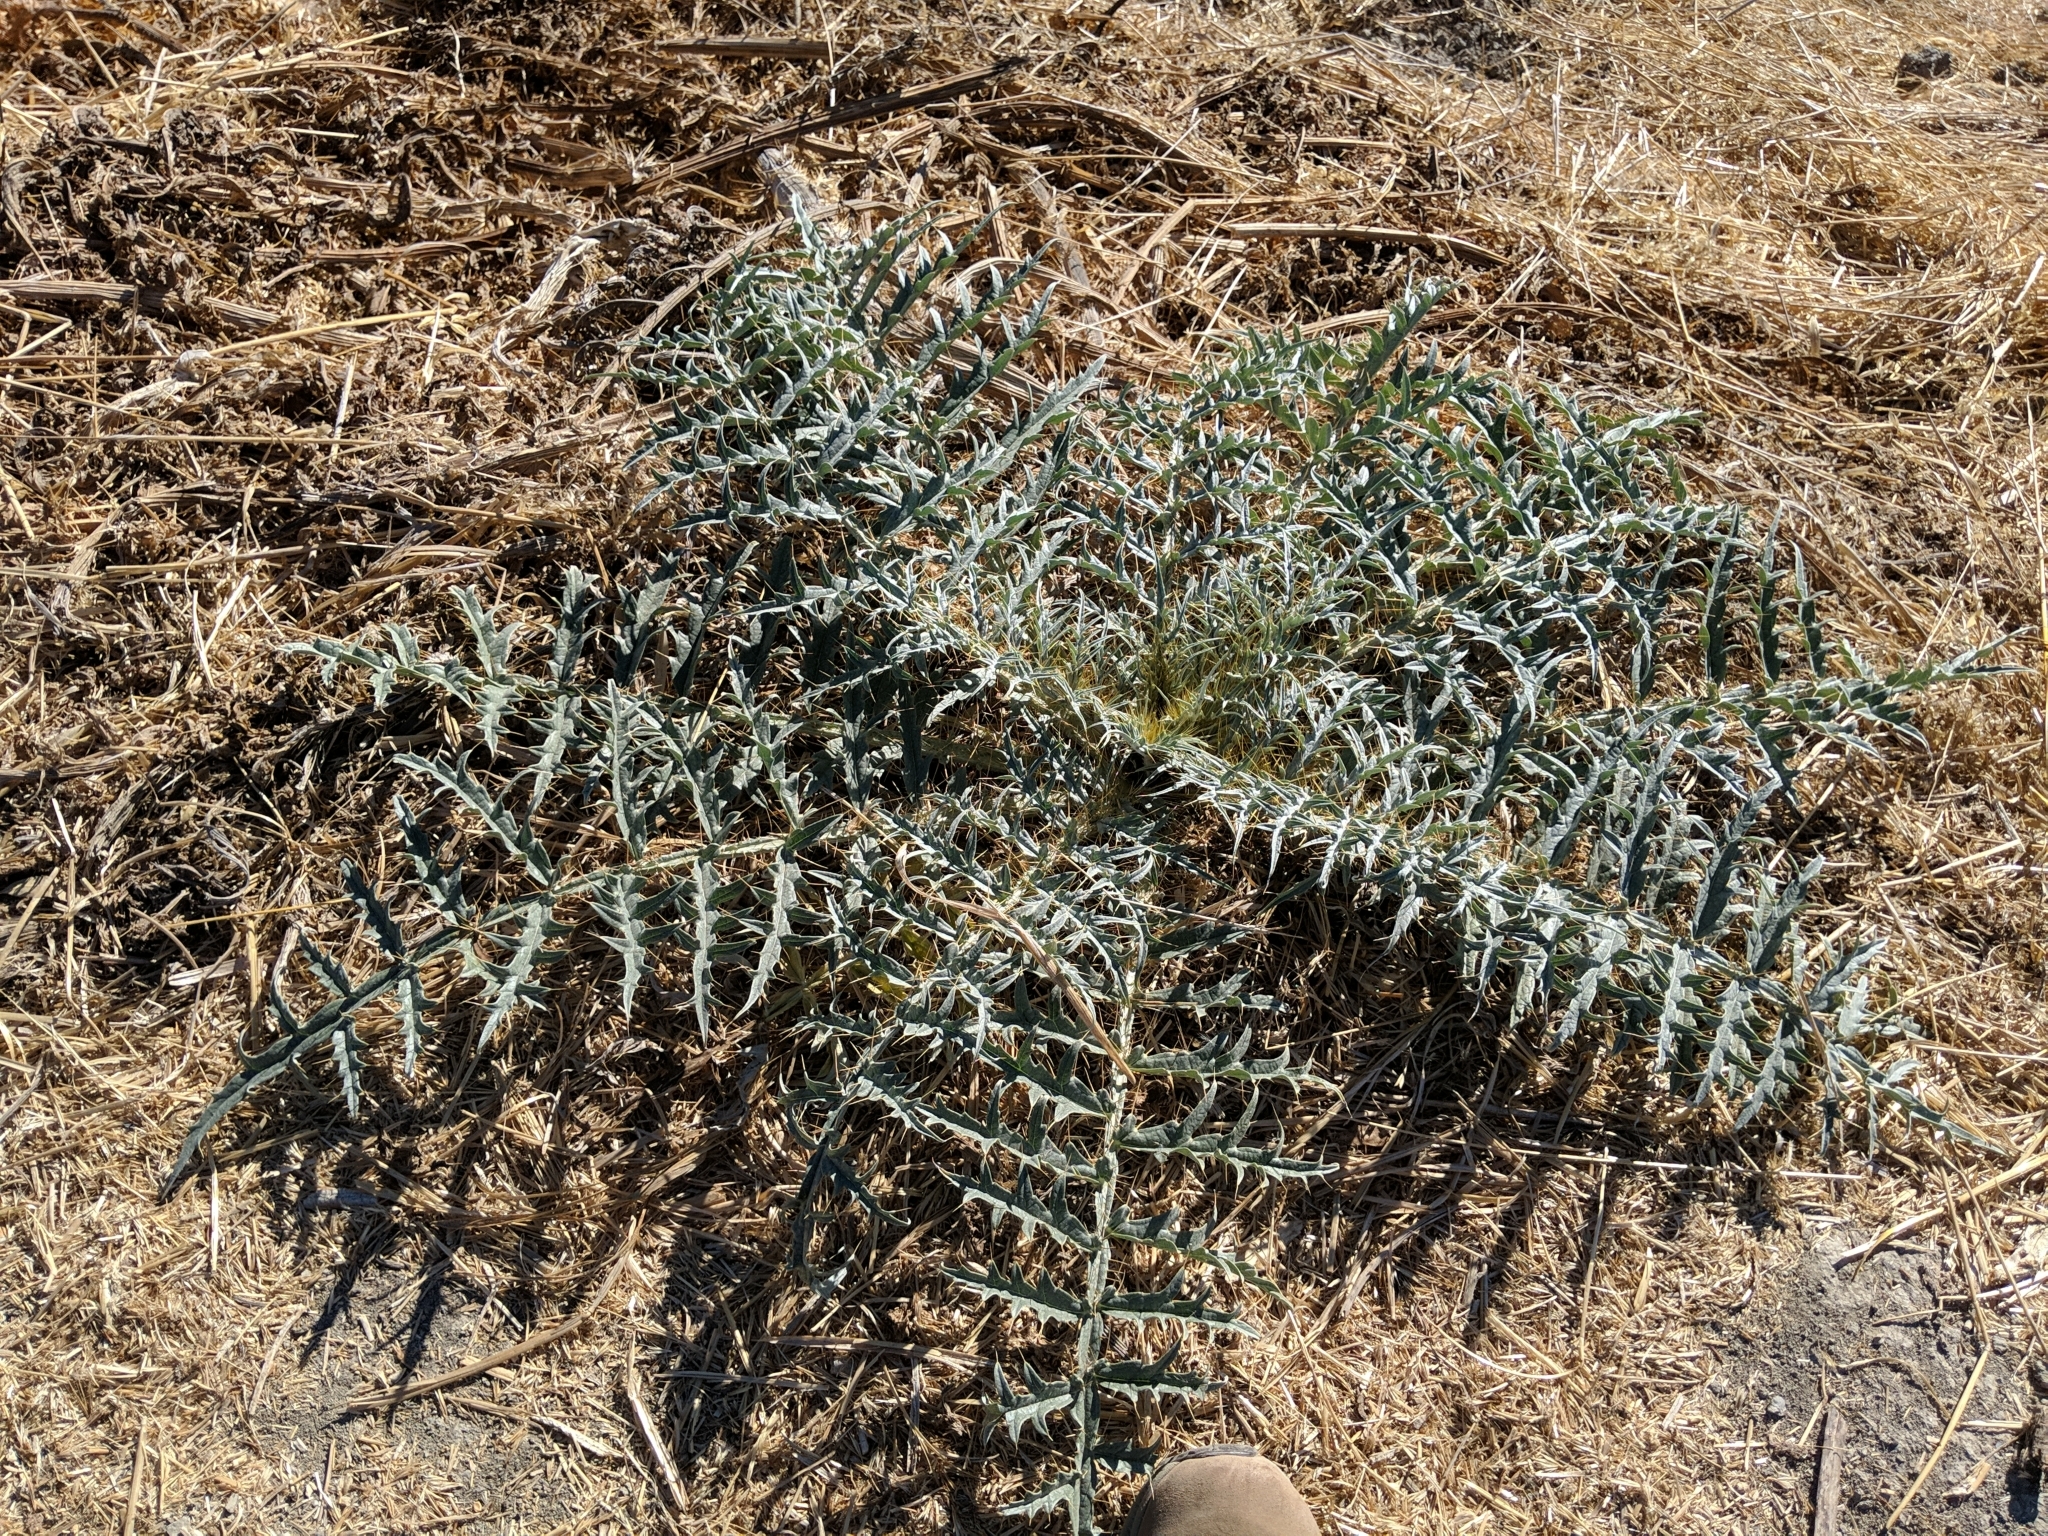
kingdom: Plantae
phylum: Tracheophyta
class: Magnoliopsida
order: Asterales
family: Asteraceae
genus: Cynara
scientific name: Cynara cardunculus
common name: Globe artichoke
